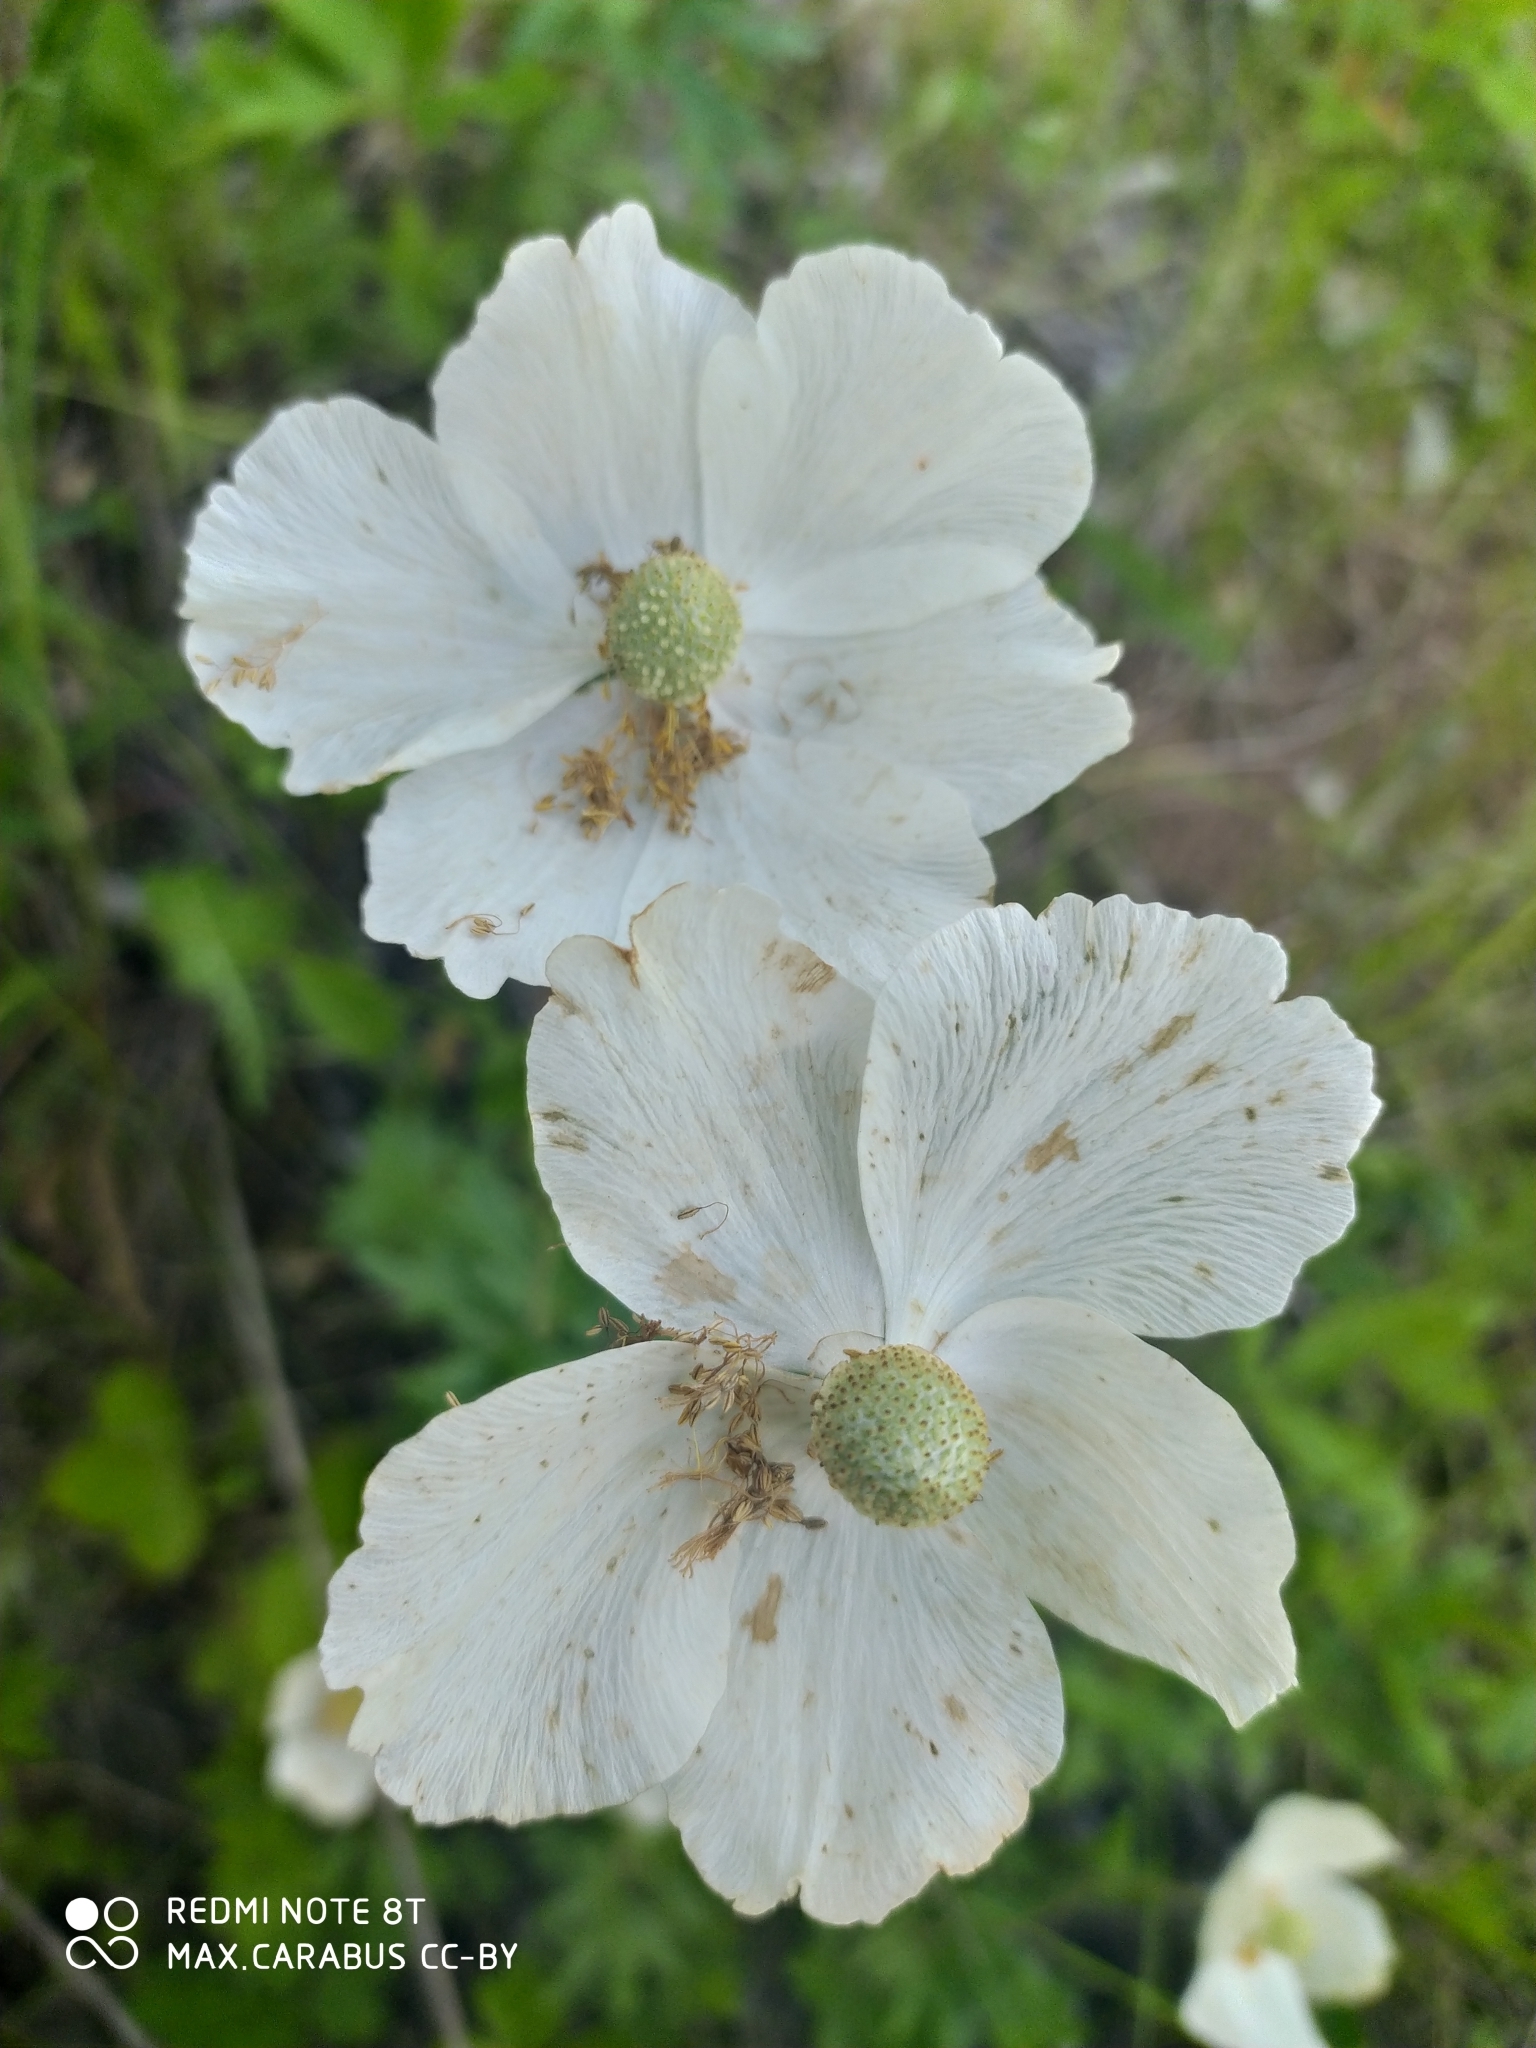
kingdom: Plantae
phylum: Tracheophyta
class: Magnoliopsida
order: Ranunculales
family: Ranunculaceae
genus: Anemone
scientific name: Anemone sylvestris
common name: Snowdrop anemone
